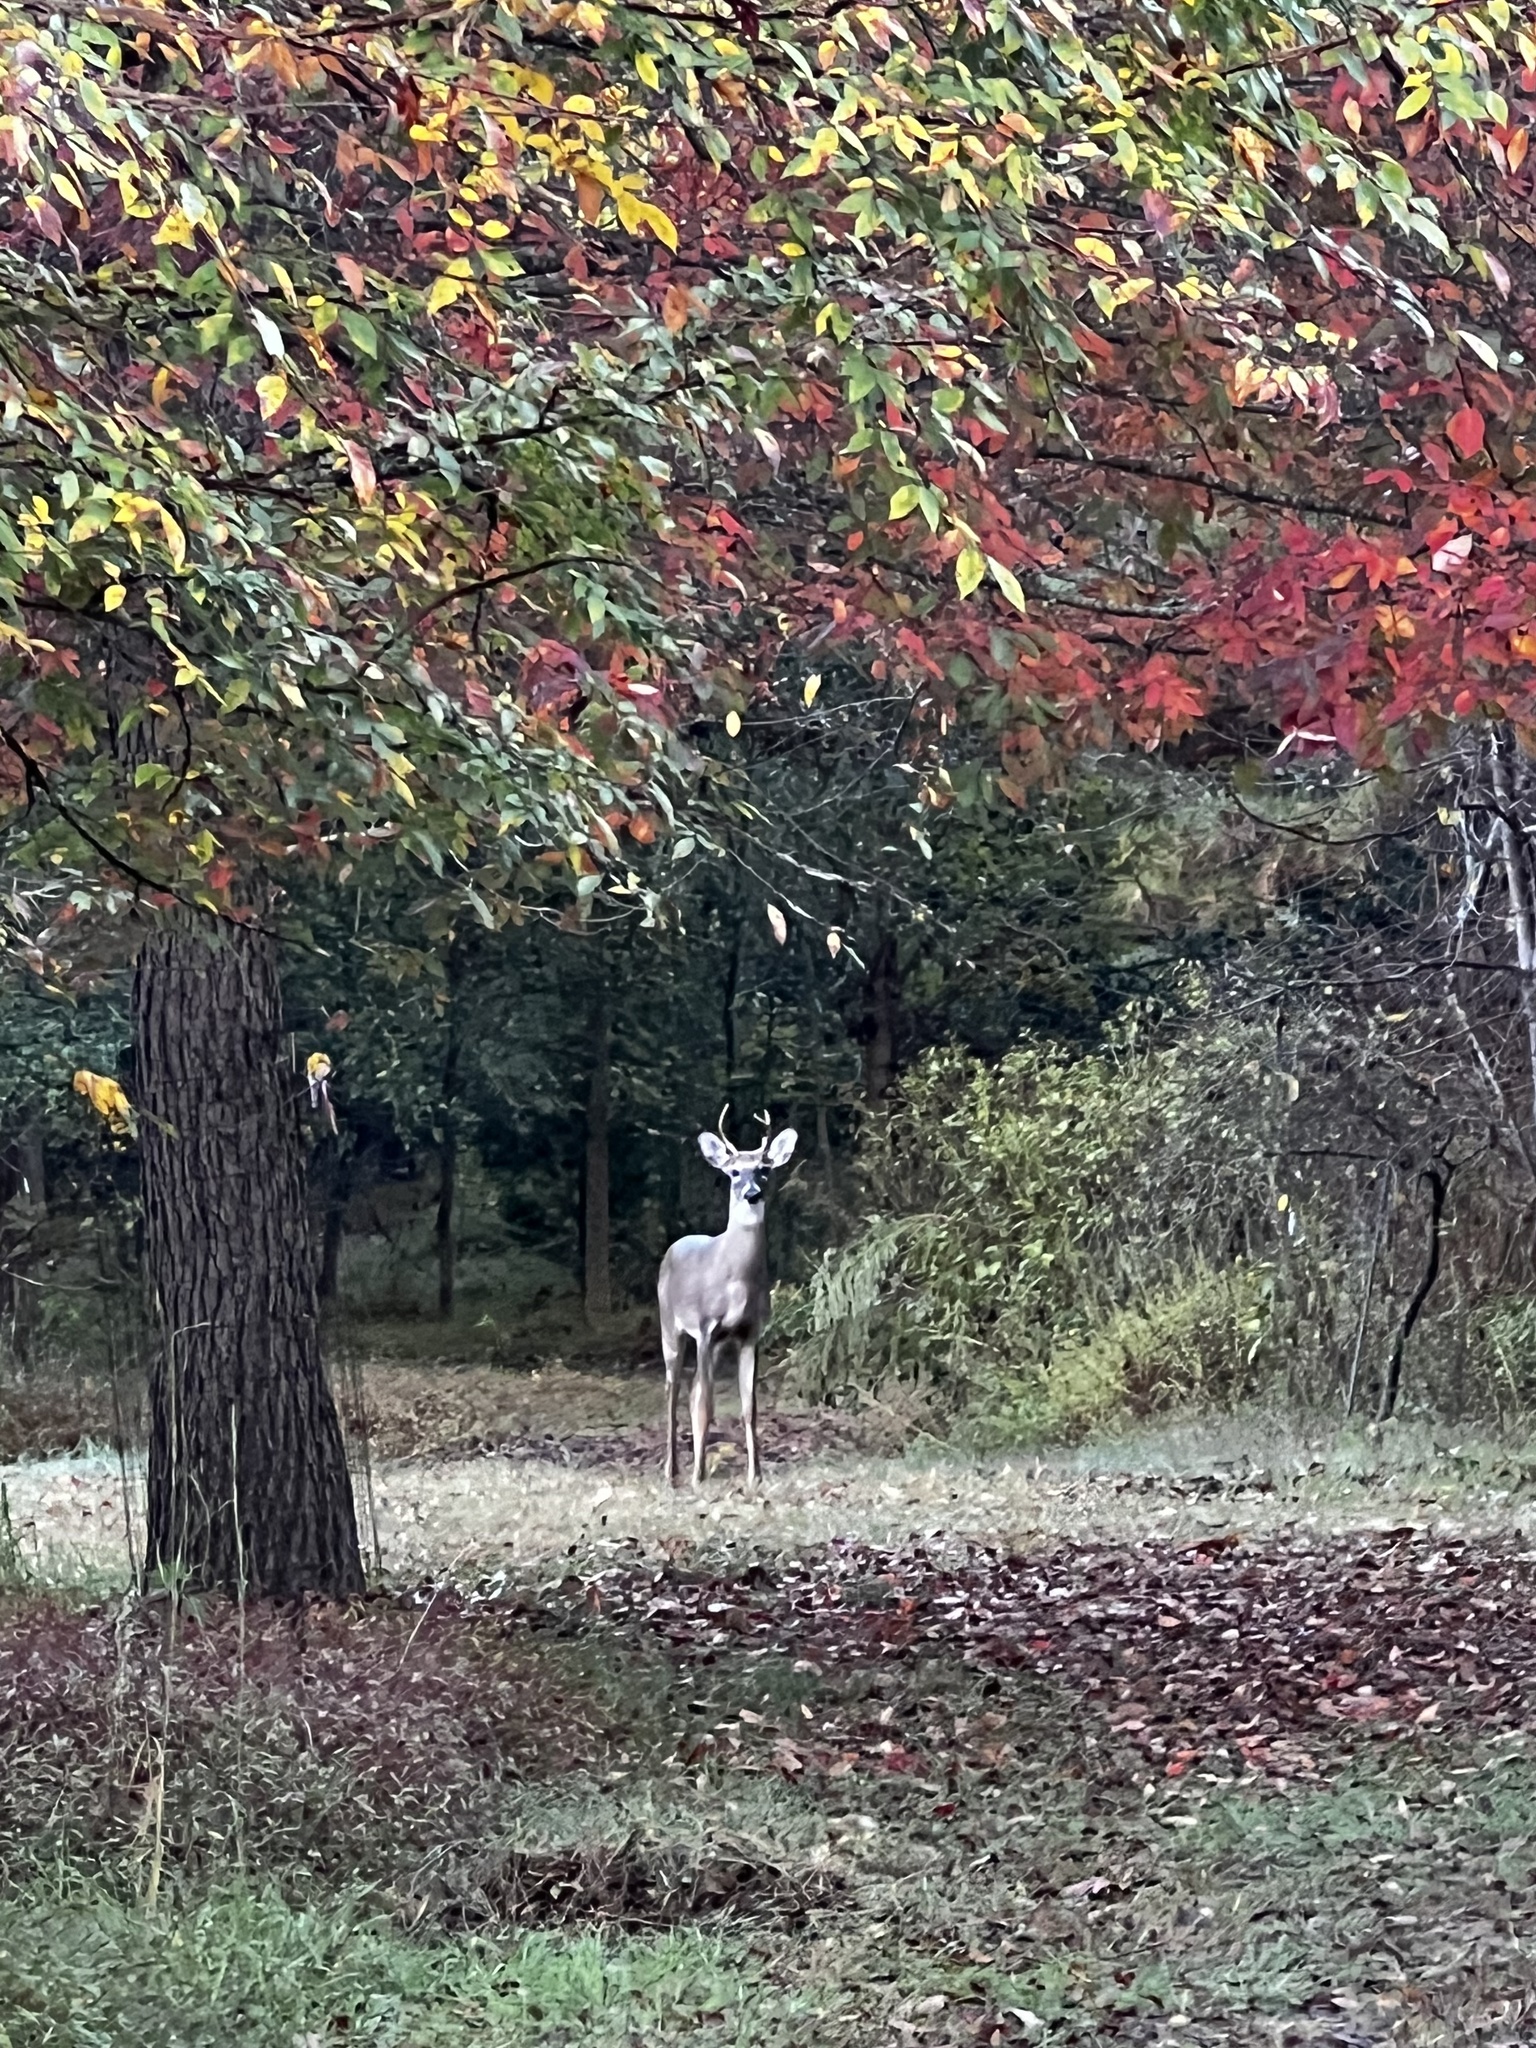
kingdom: Animalia
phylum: Chordata
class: Mammalia
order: Artiodactyla
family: Cervidae
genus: Odocoileus
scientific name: Odocoileus virginianus
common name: White-tailed deer
